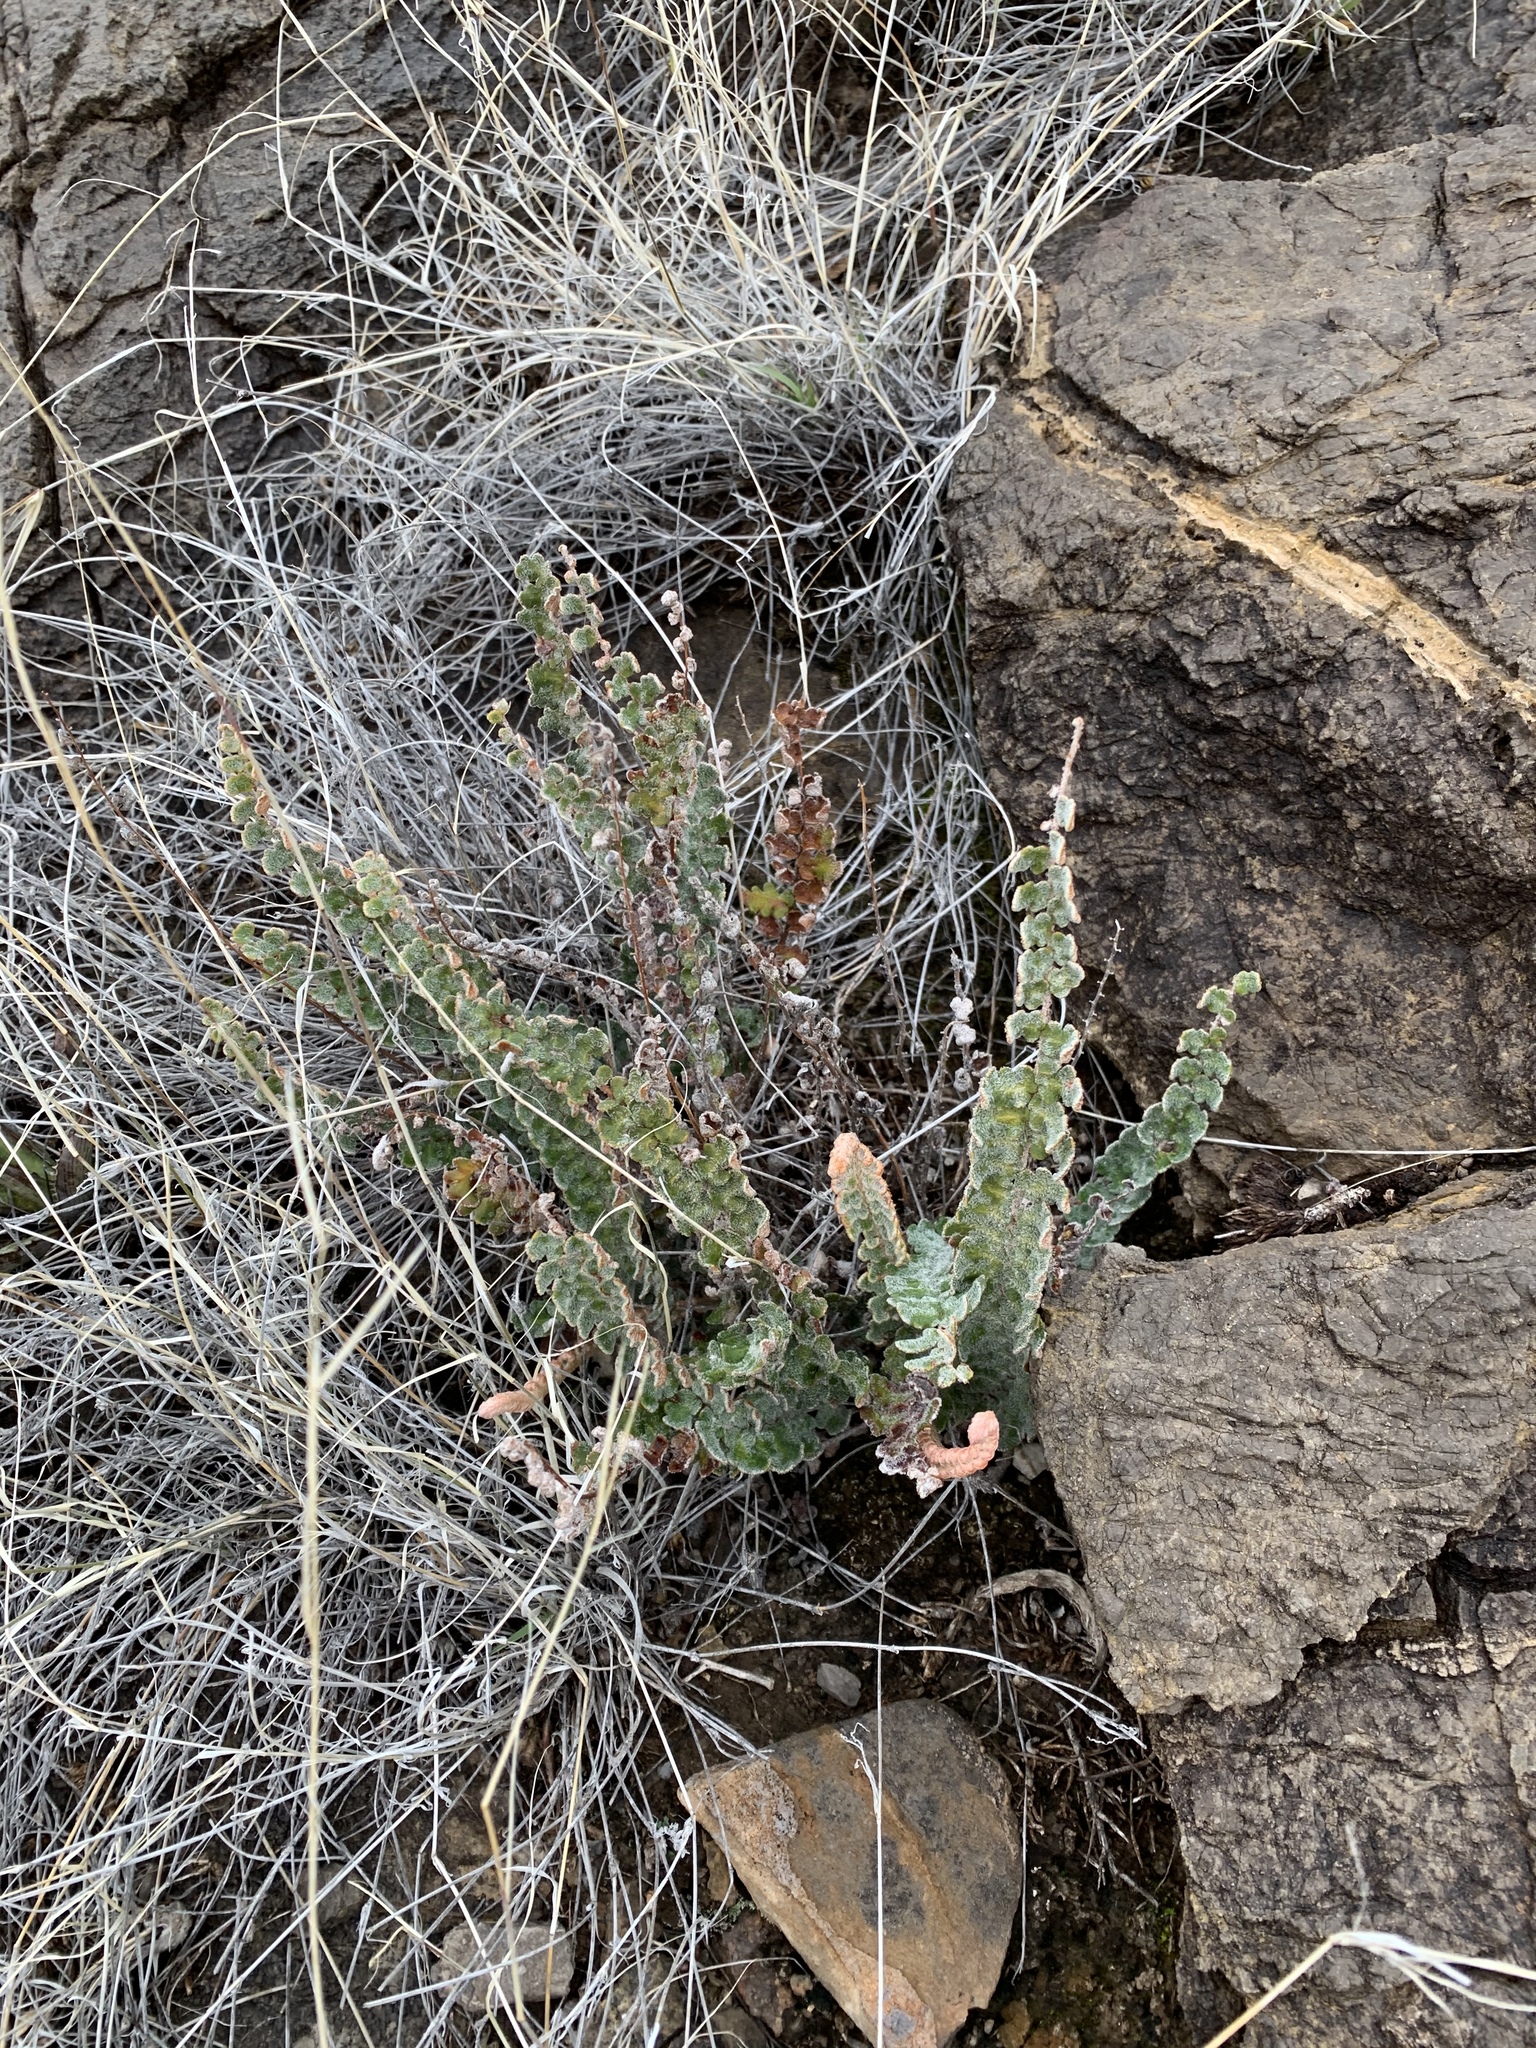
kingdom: Plantae
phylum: Tracheophyta
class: Polypodiopsida
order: Polypodiales
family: Pteridaceae
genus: Astrolepis
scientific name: Astrolepis integerrima
